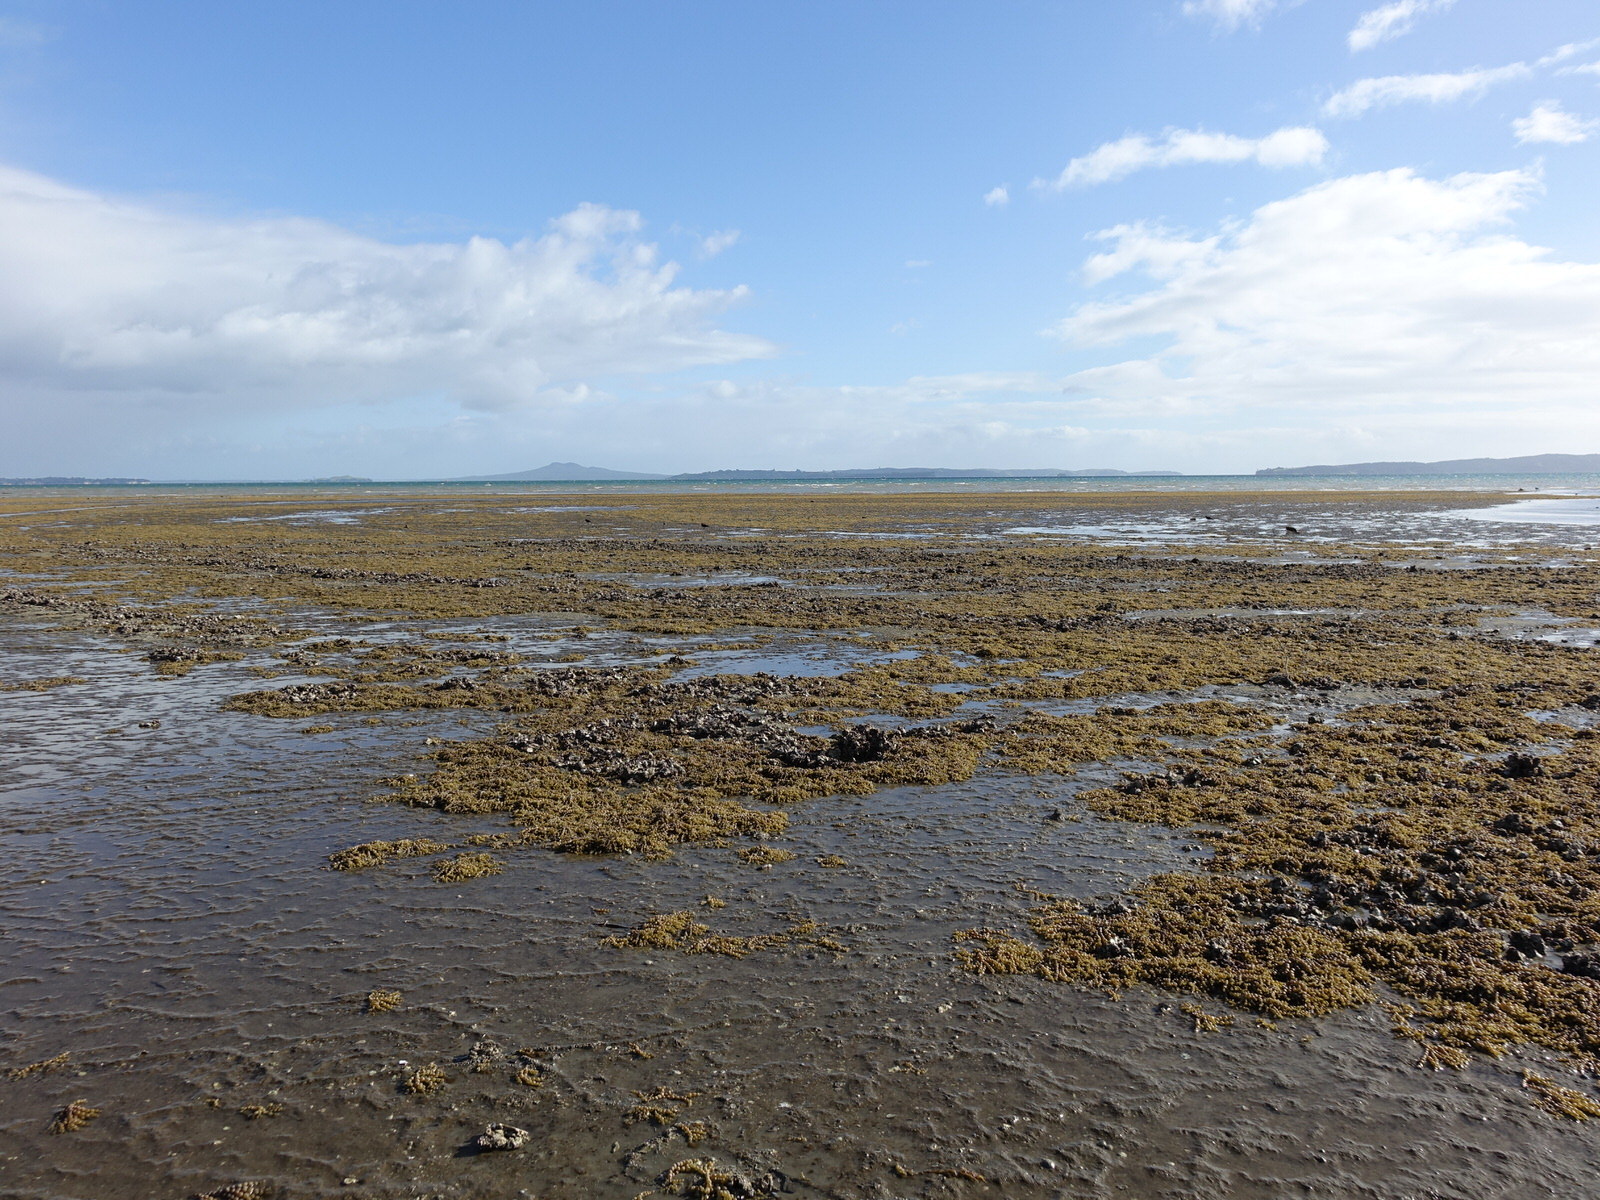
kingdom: Chromista
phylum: Ochrophyta
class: Phaeophyceae
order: Fucales
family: Hormosiraceae
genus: Hormosira
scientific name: Hormosira banksii
